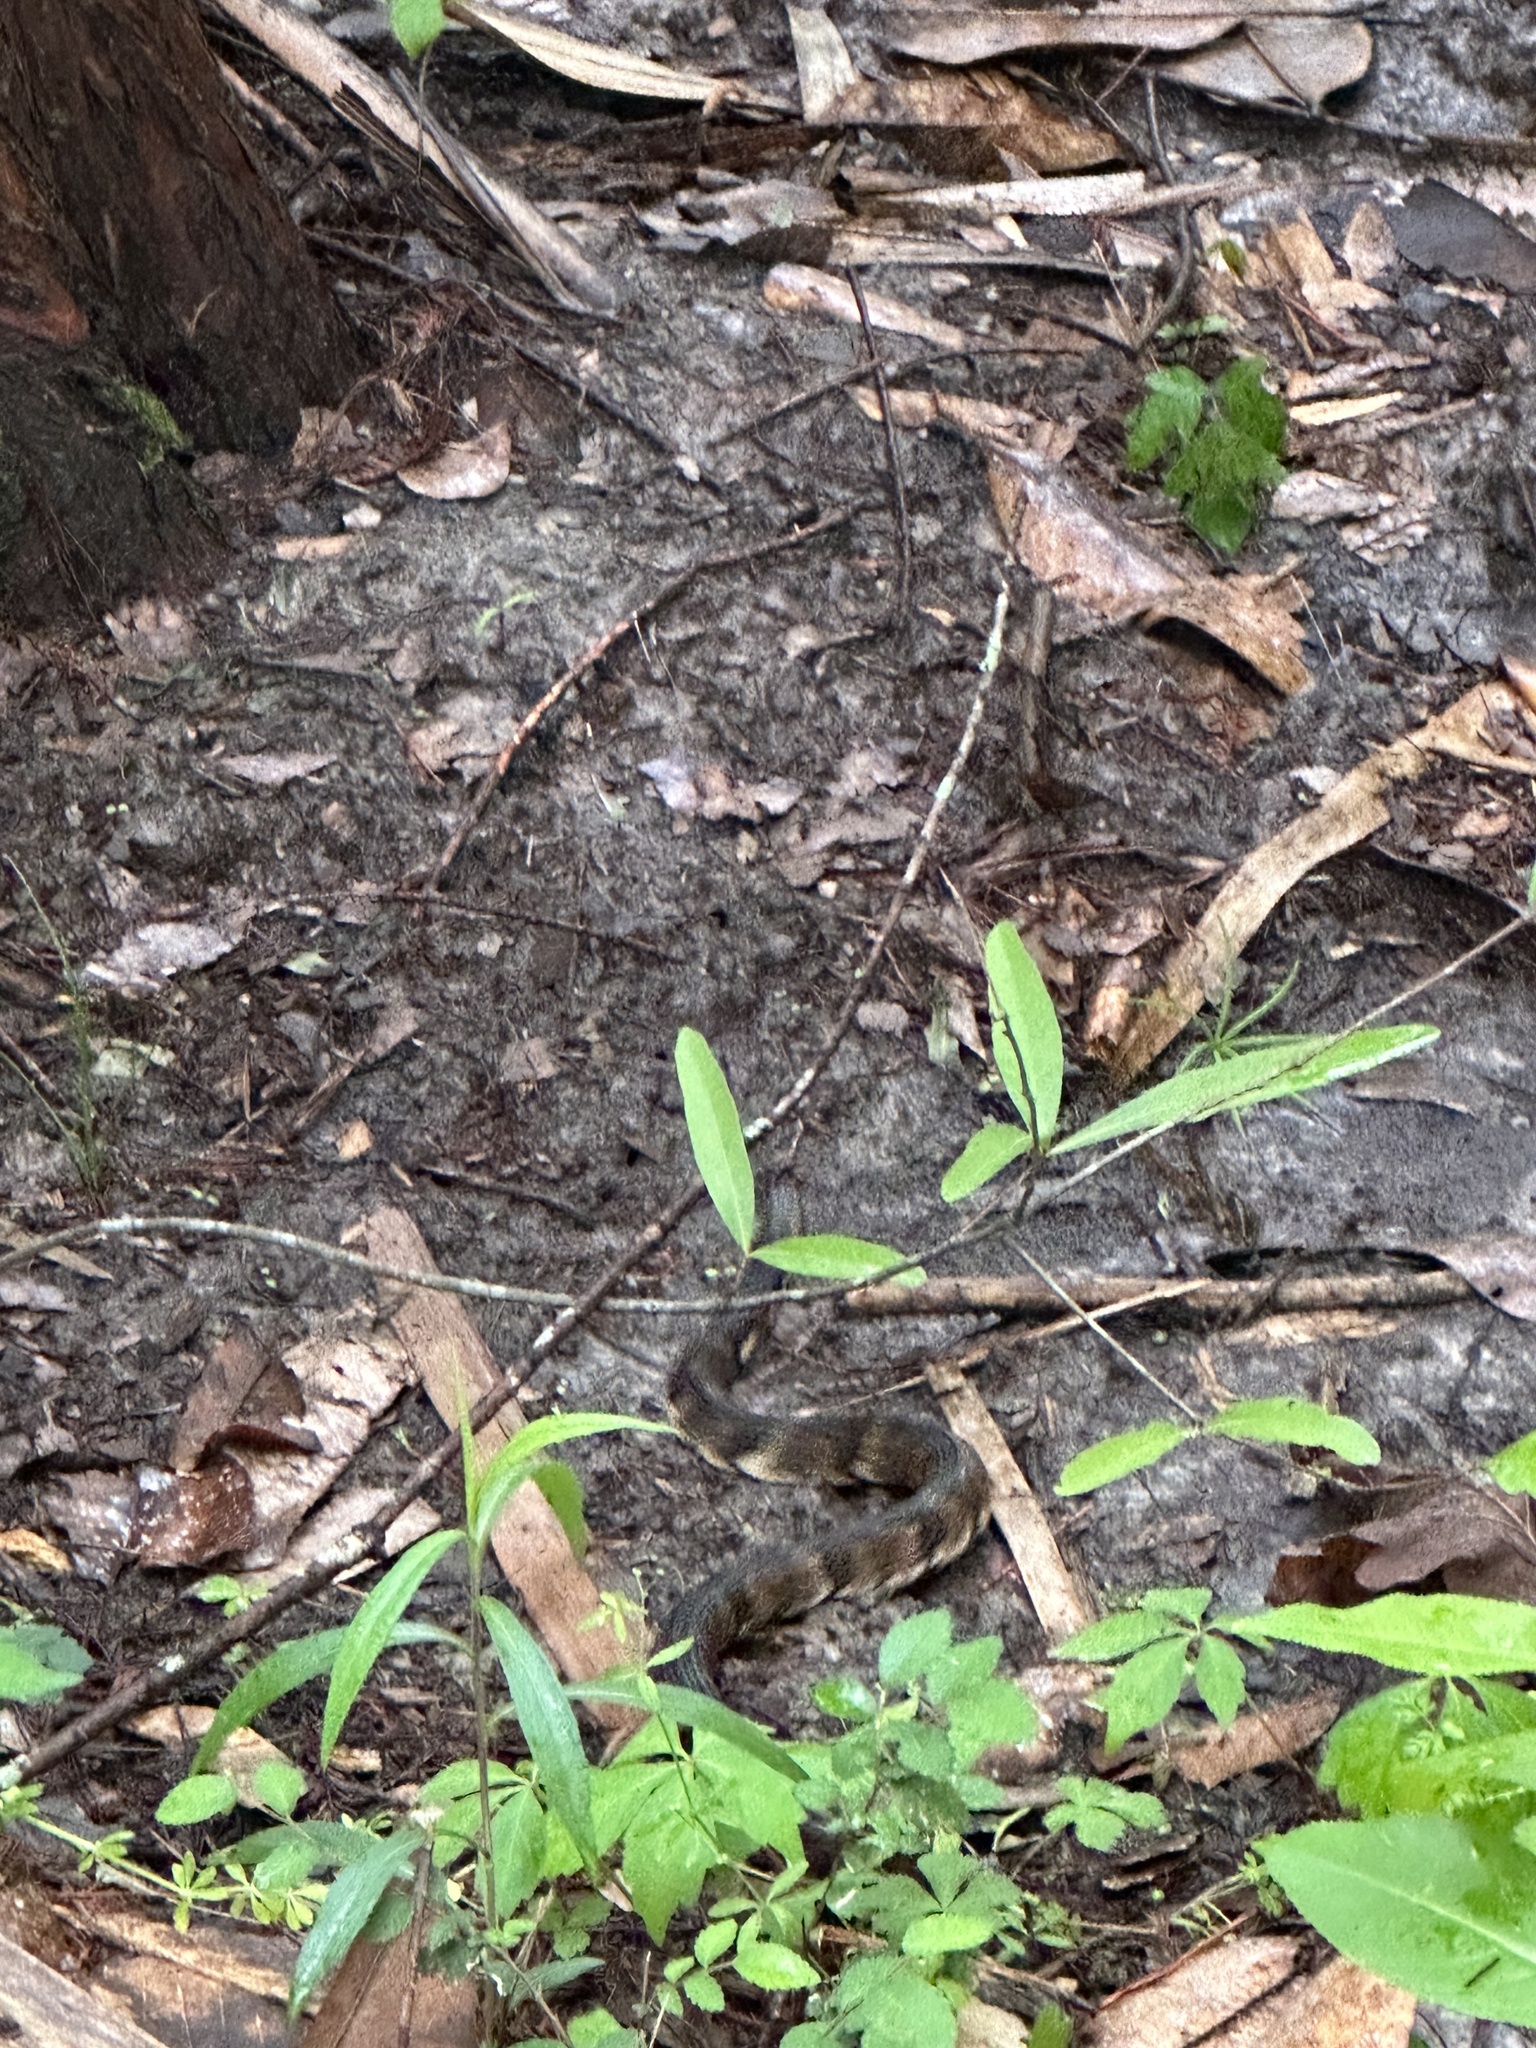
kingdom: Animalia
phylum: Chordata
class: Squamata
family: Colubridae
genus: Nerodia
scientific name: Nerodia fasciata
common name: Southern water snake
